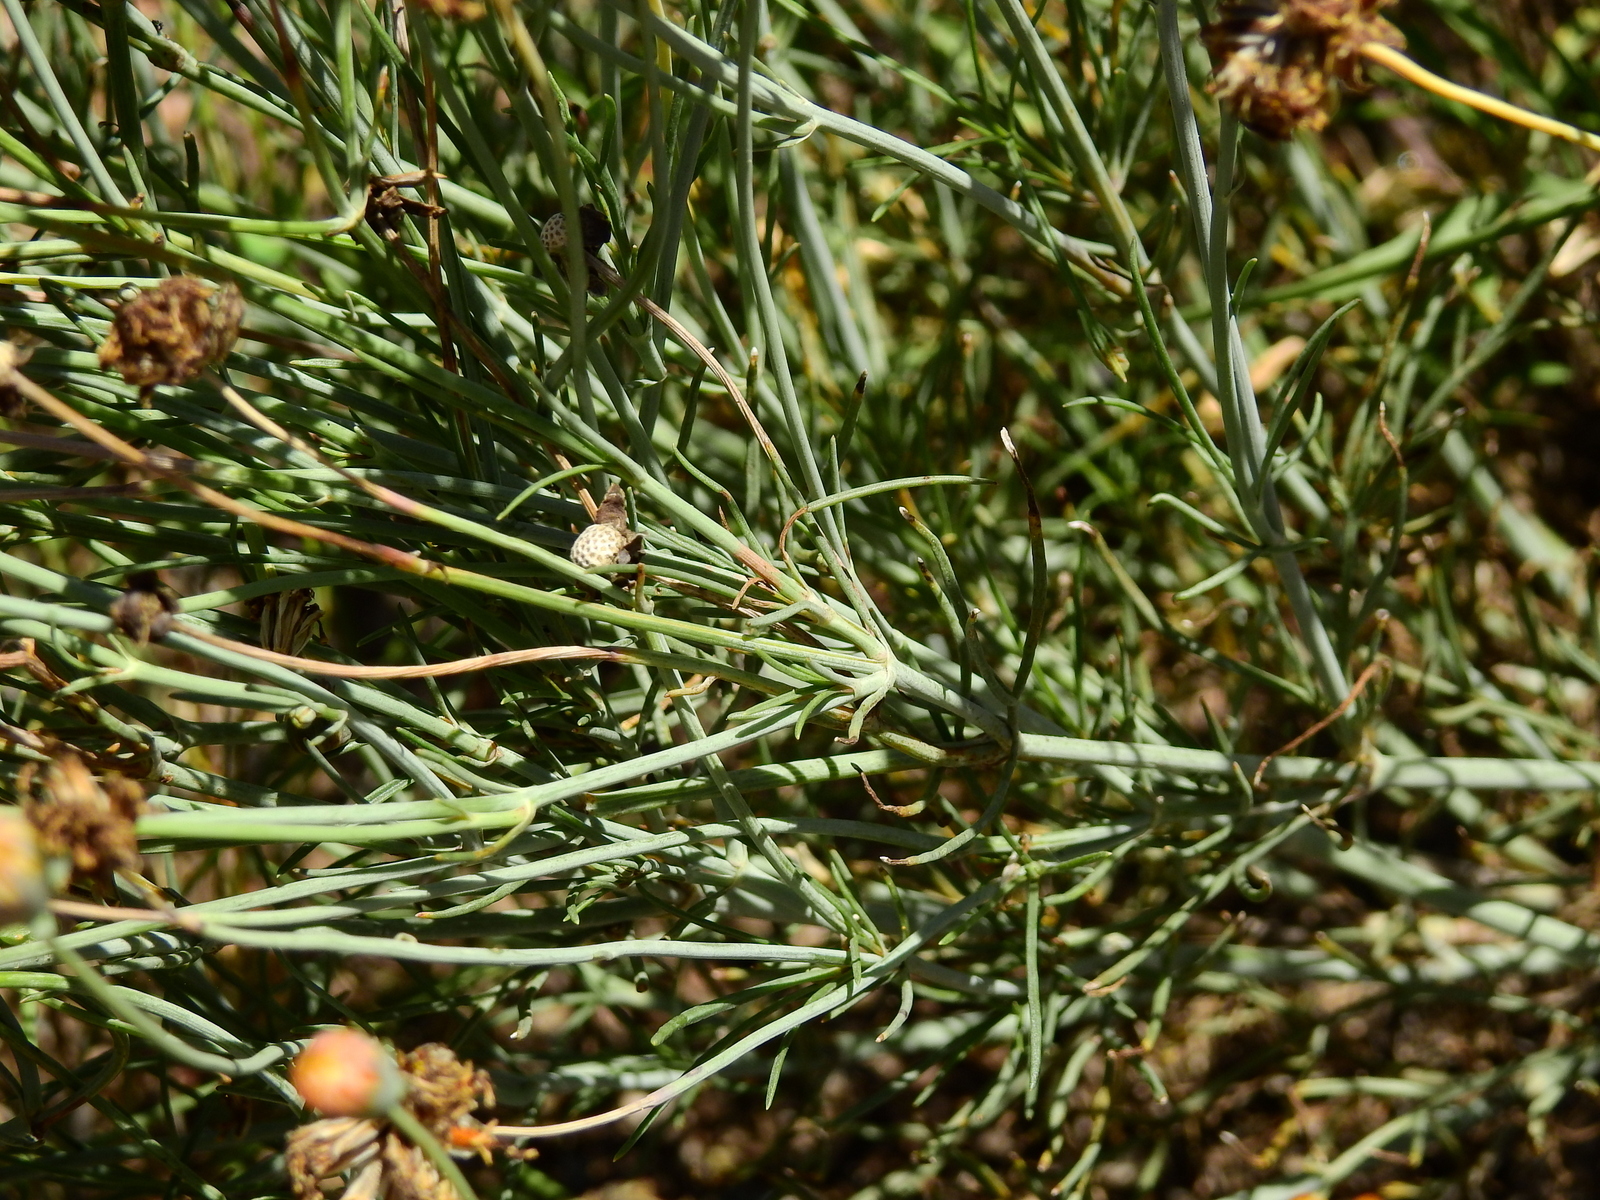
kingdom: Plantae
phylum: Tracheophyta
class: Magnoliopsida
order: Asterales
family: Asteraceae
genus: Thelesperma
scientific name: Thelesperma megapotamicum
